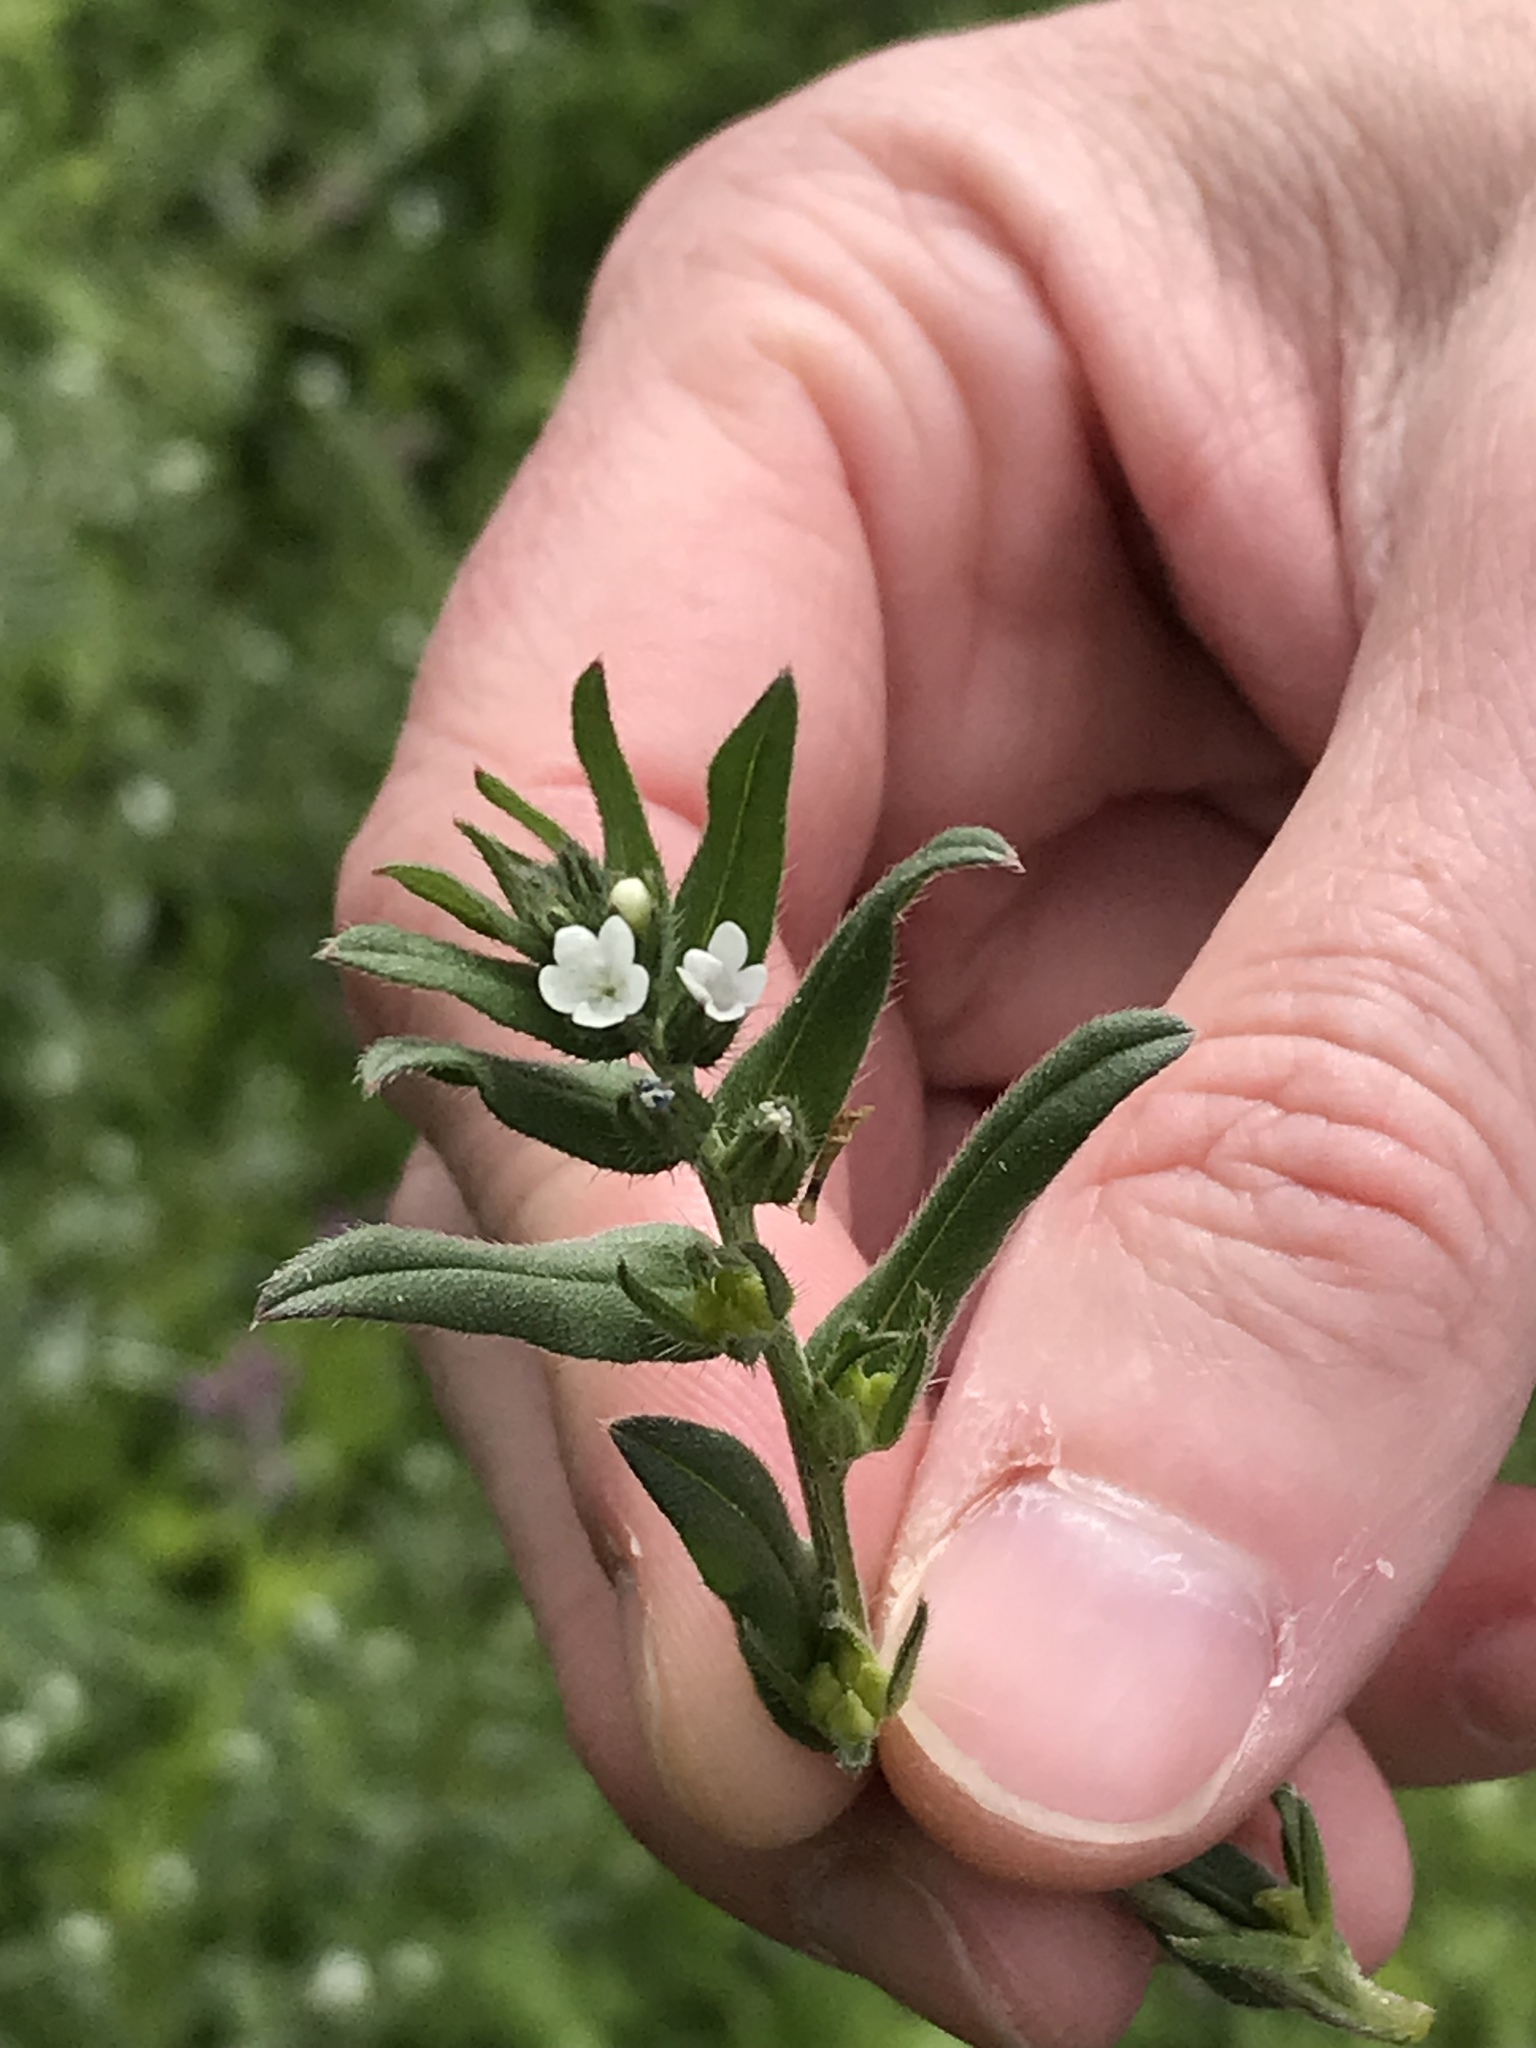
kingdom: Plantae
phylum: Tracheophyta
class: Magnoliopsida
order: Boraginales
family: Boraginaceae
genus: Buglossoides
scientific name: Buglossoides arvensis
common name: Corn gromwell
